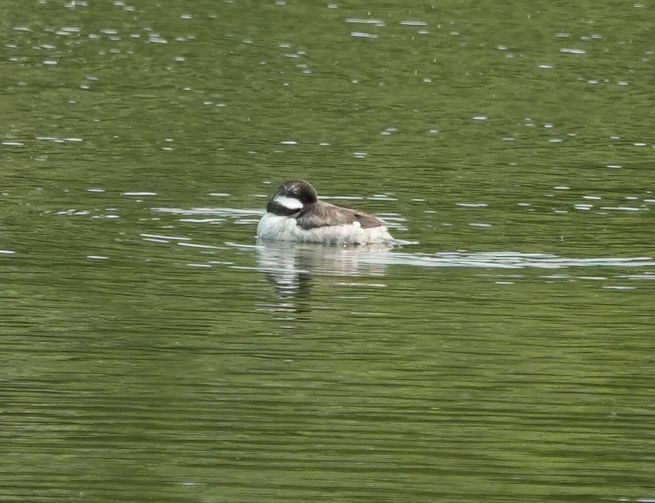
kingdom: Animalia
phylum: Chordata
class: Aves
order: Anseriformes
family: Anatidae
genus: Bucephala
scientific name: Bucephala albeola
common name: Bufflehead
